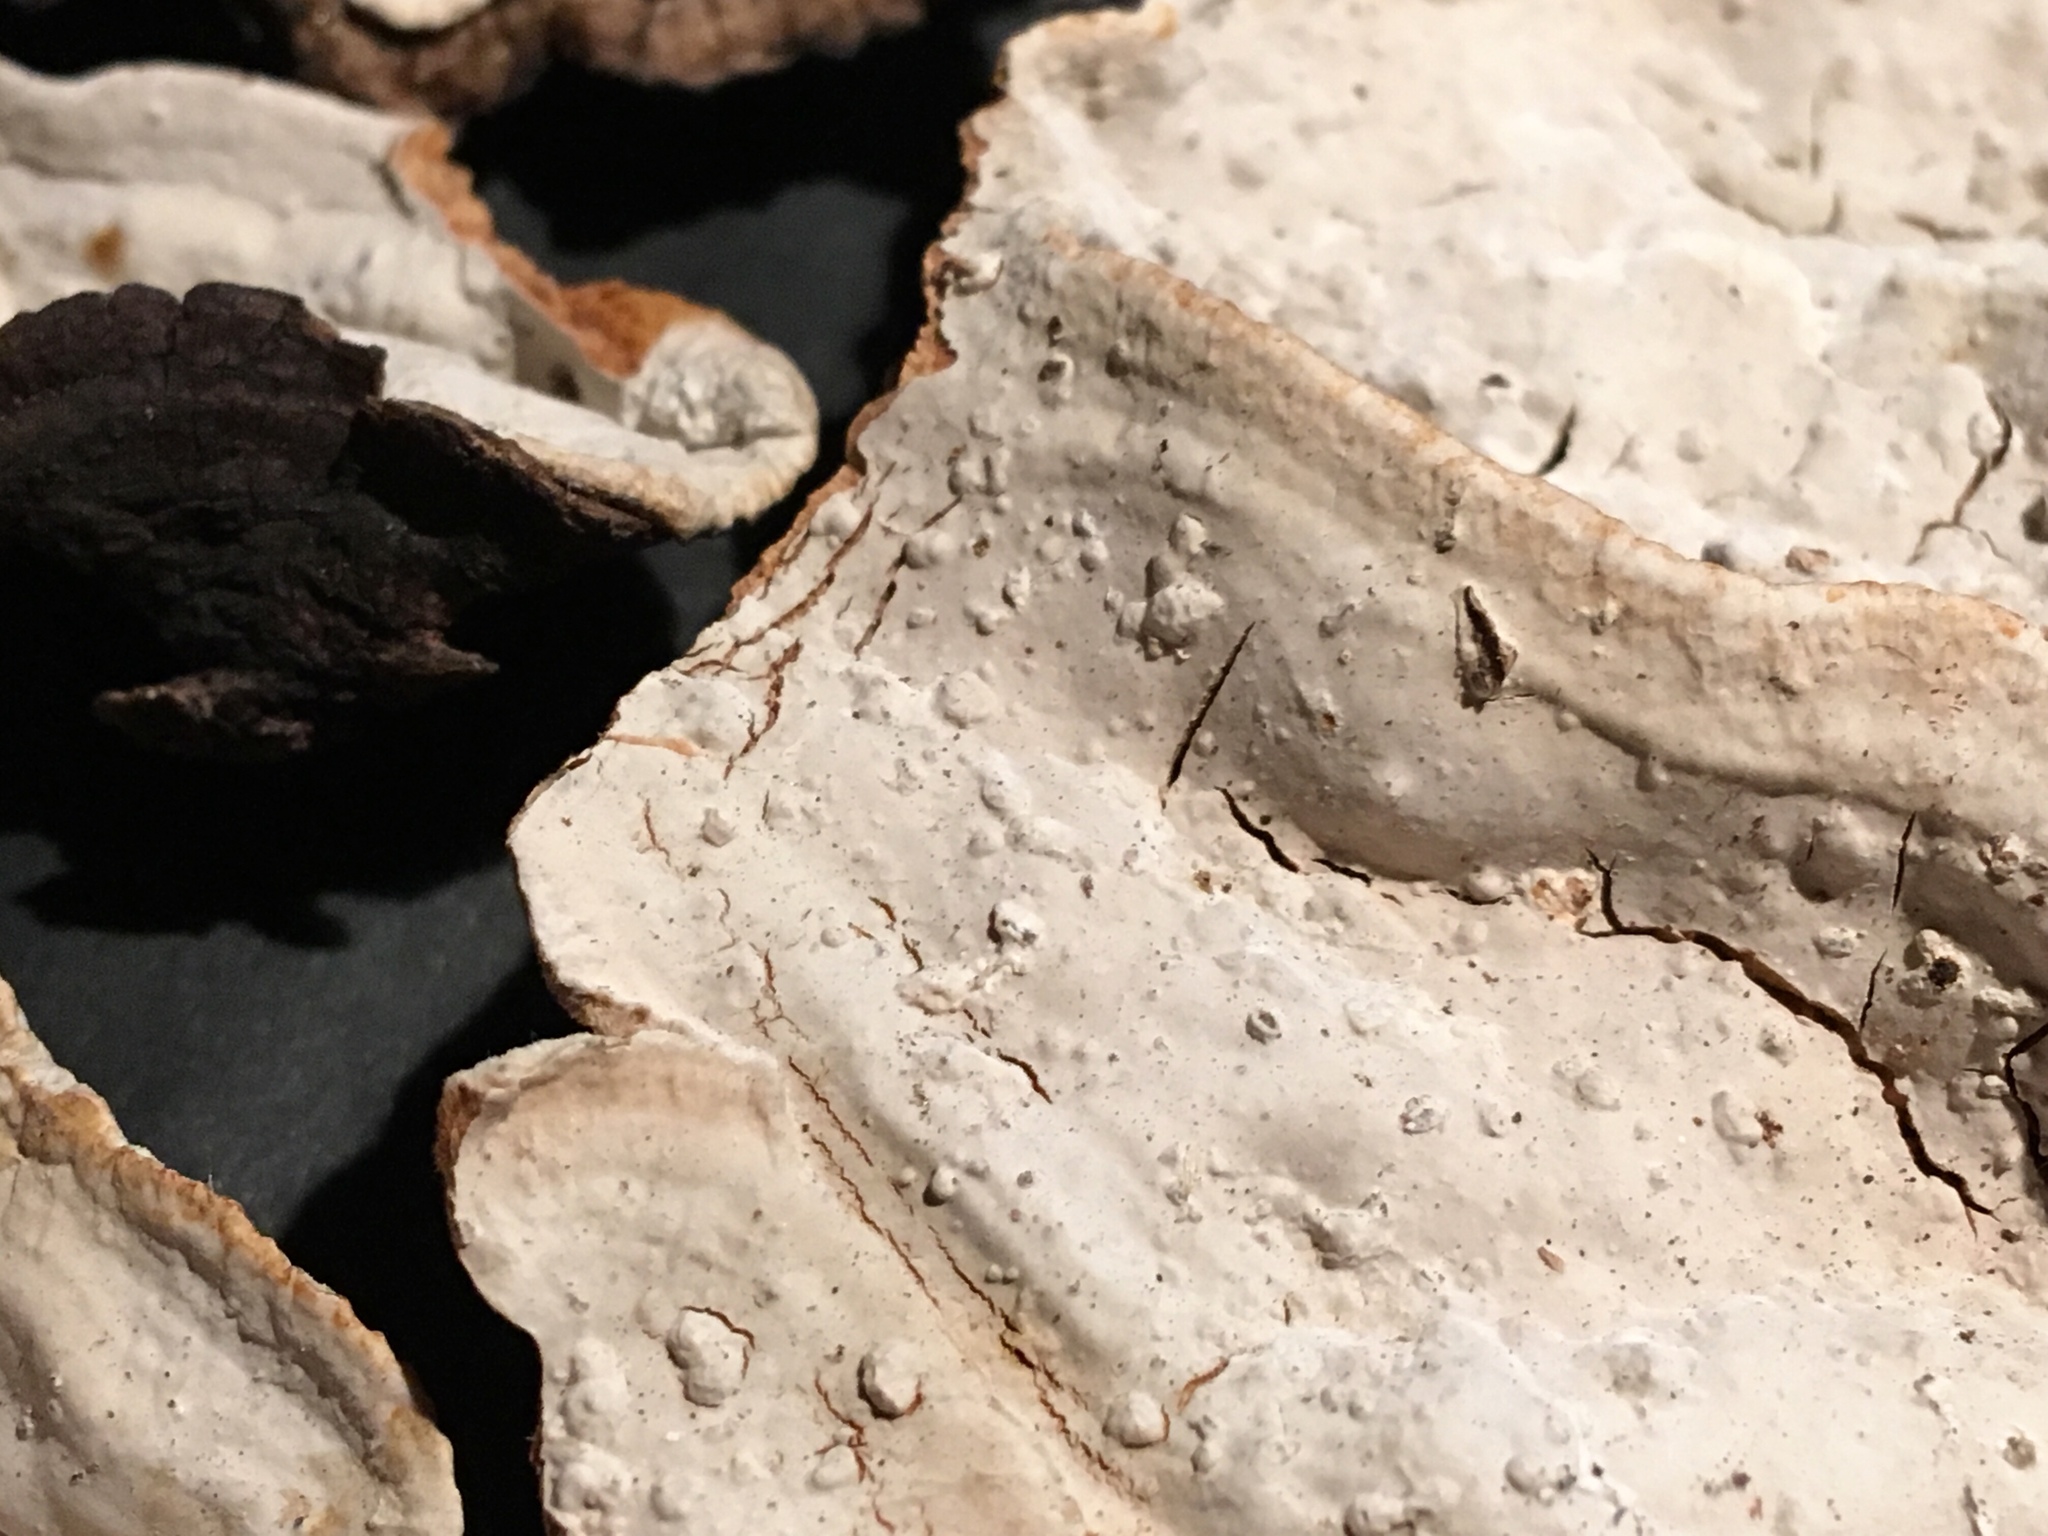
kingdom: Fungi
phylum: Basidiomycota
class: Agaricomycetes
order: Russulales
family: Stereaceae
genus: Xylobolus
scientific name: Xylobolus subpileatus
